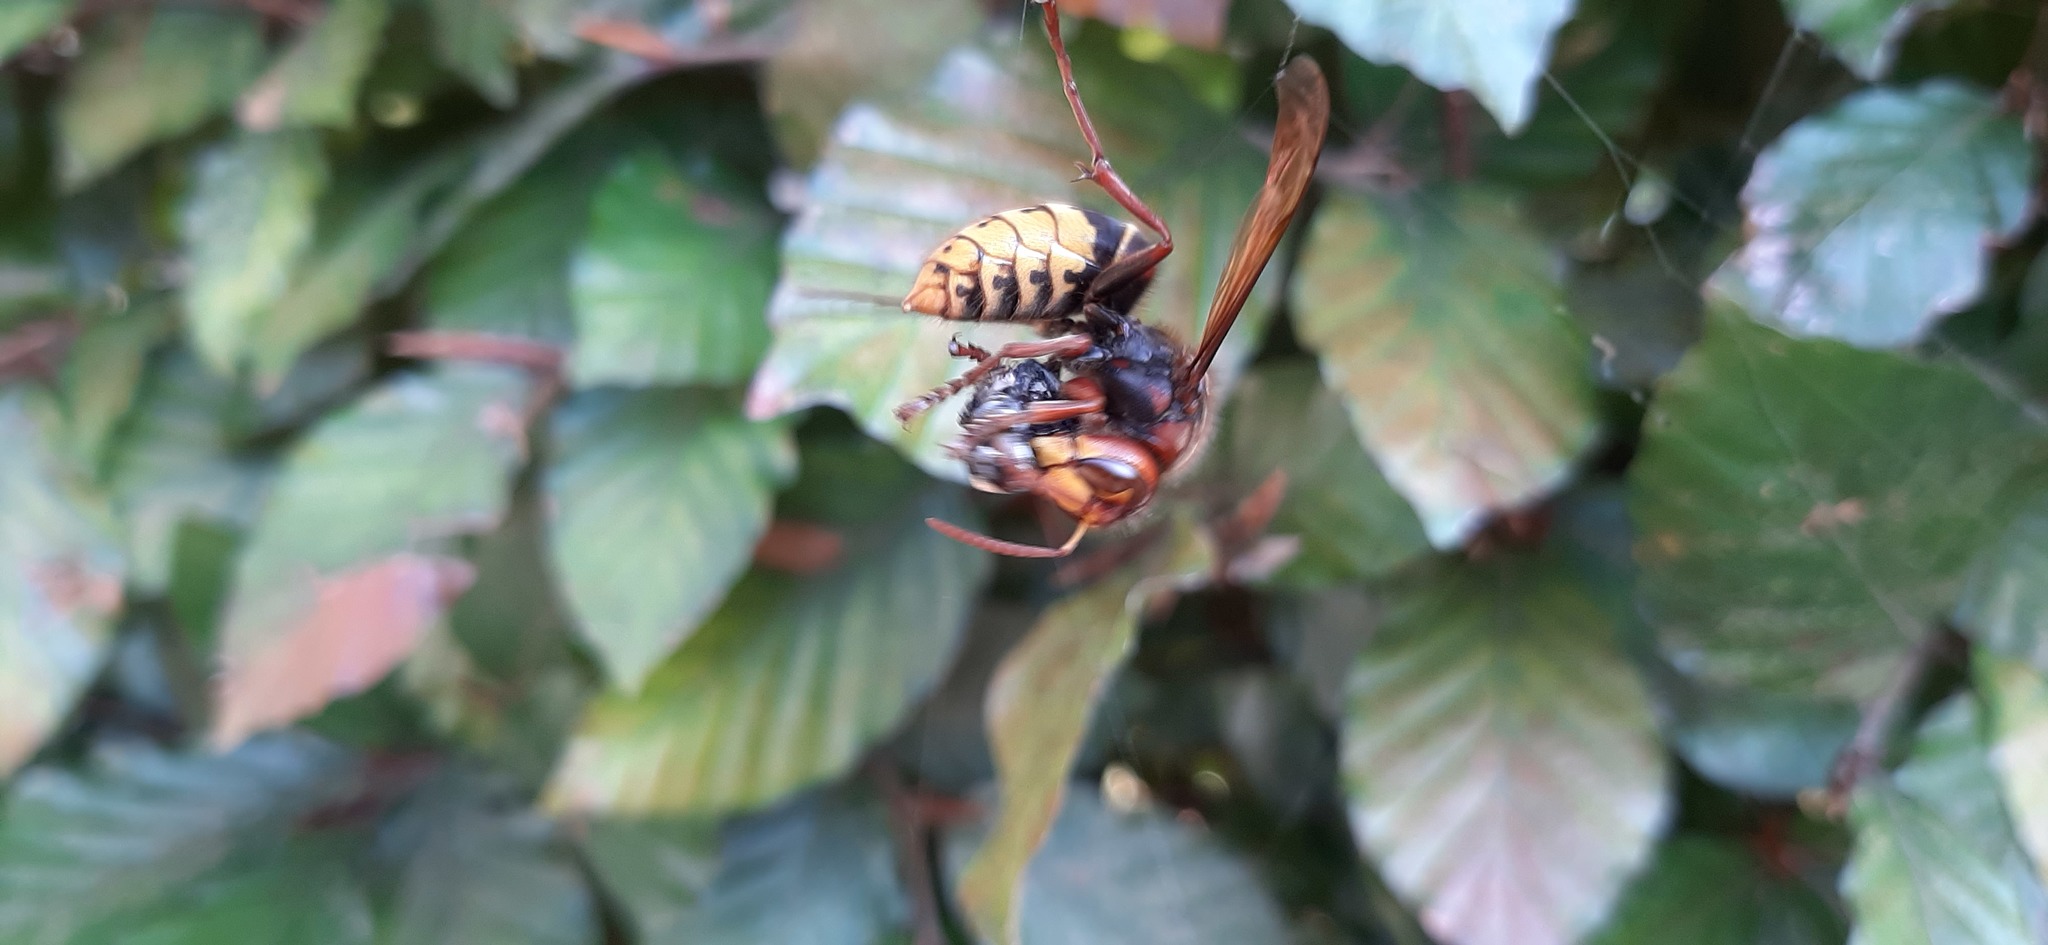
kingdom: Animalia
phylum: Arthropoda
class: Insecta
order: Hymenoptera
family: Vespidae
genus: Vespa
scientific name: Vespa crabro
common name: Hornet
